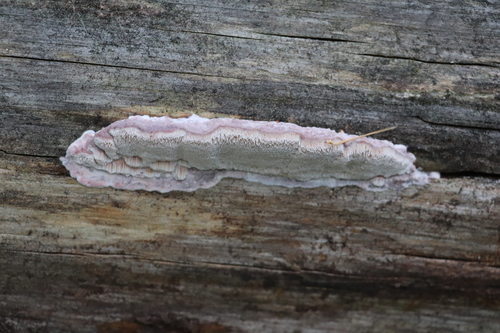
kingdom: Fungi
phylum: Basidiomycota
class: Agaricomycetes
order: Polyporales
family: Irpicaceae
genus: Leptoporus
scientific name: Leptoporus mollis
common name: Soft bracket
